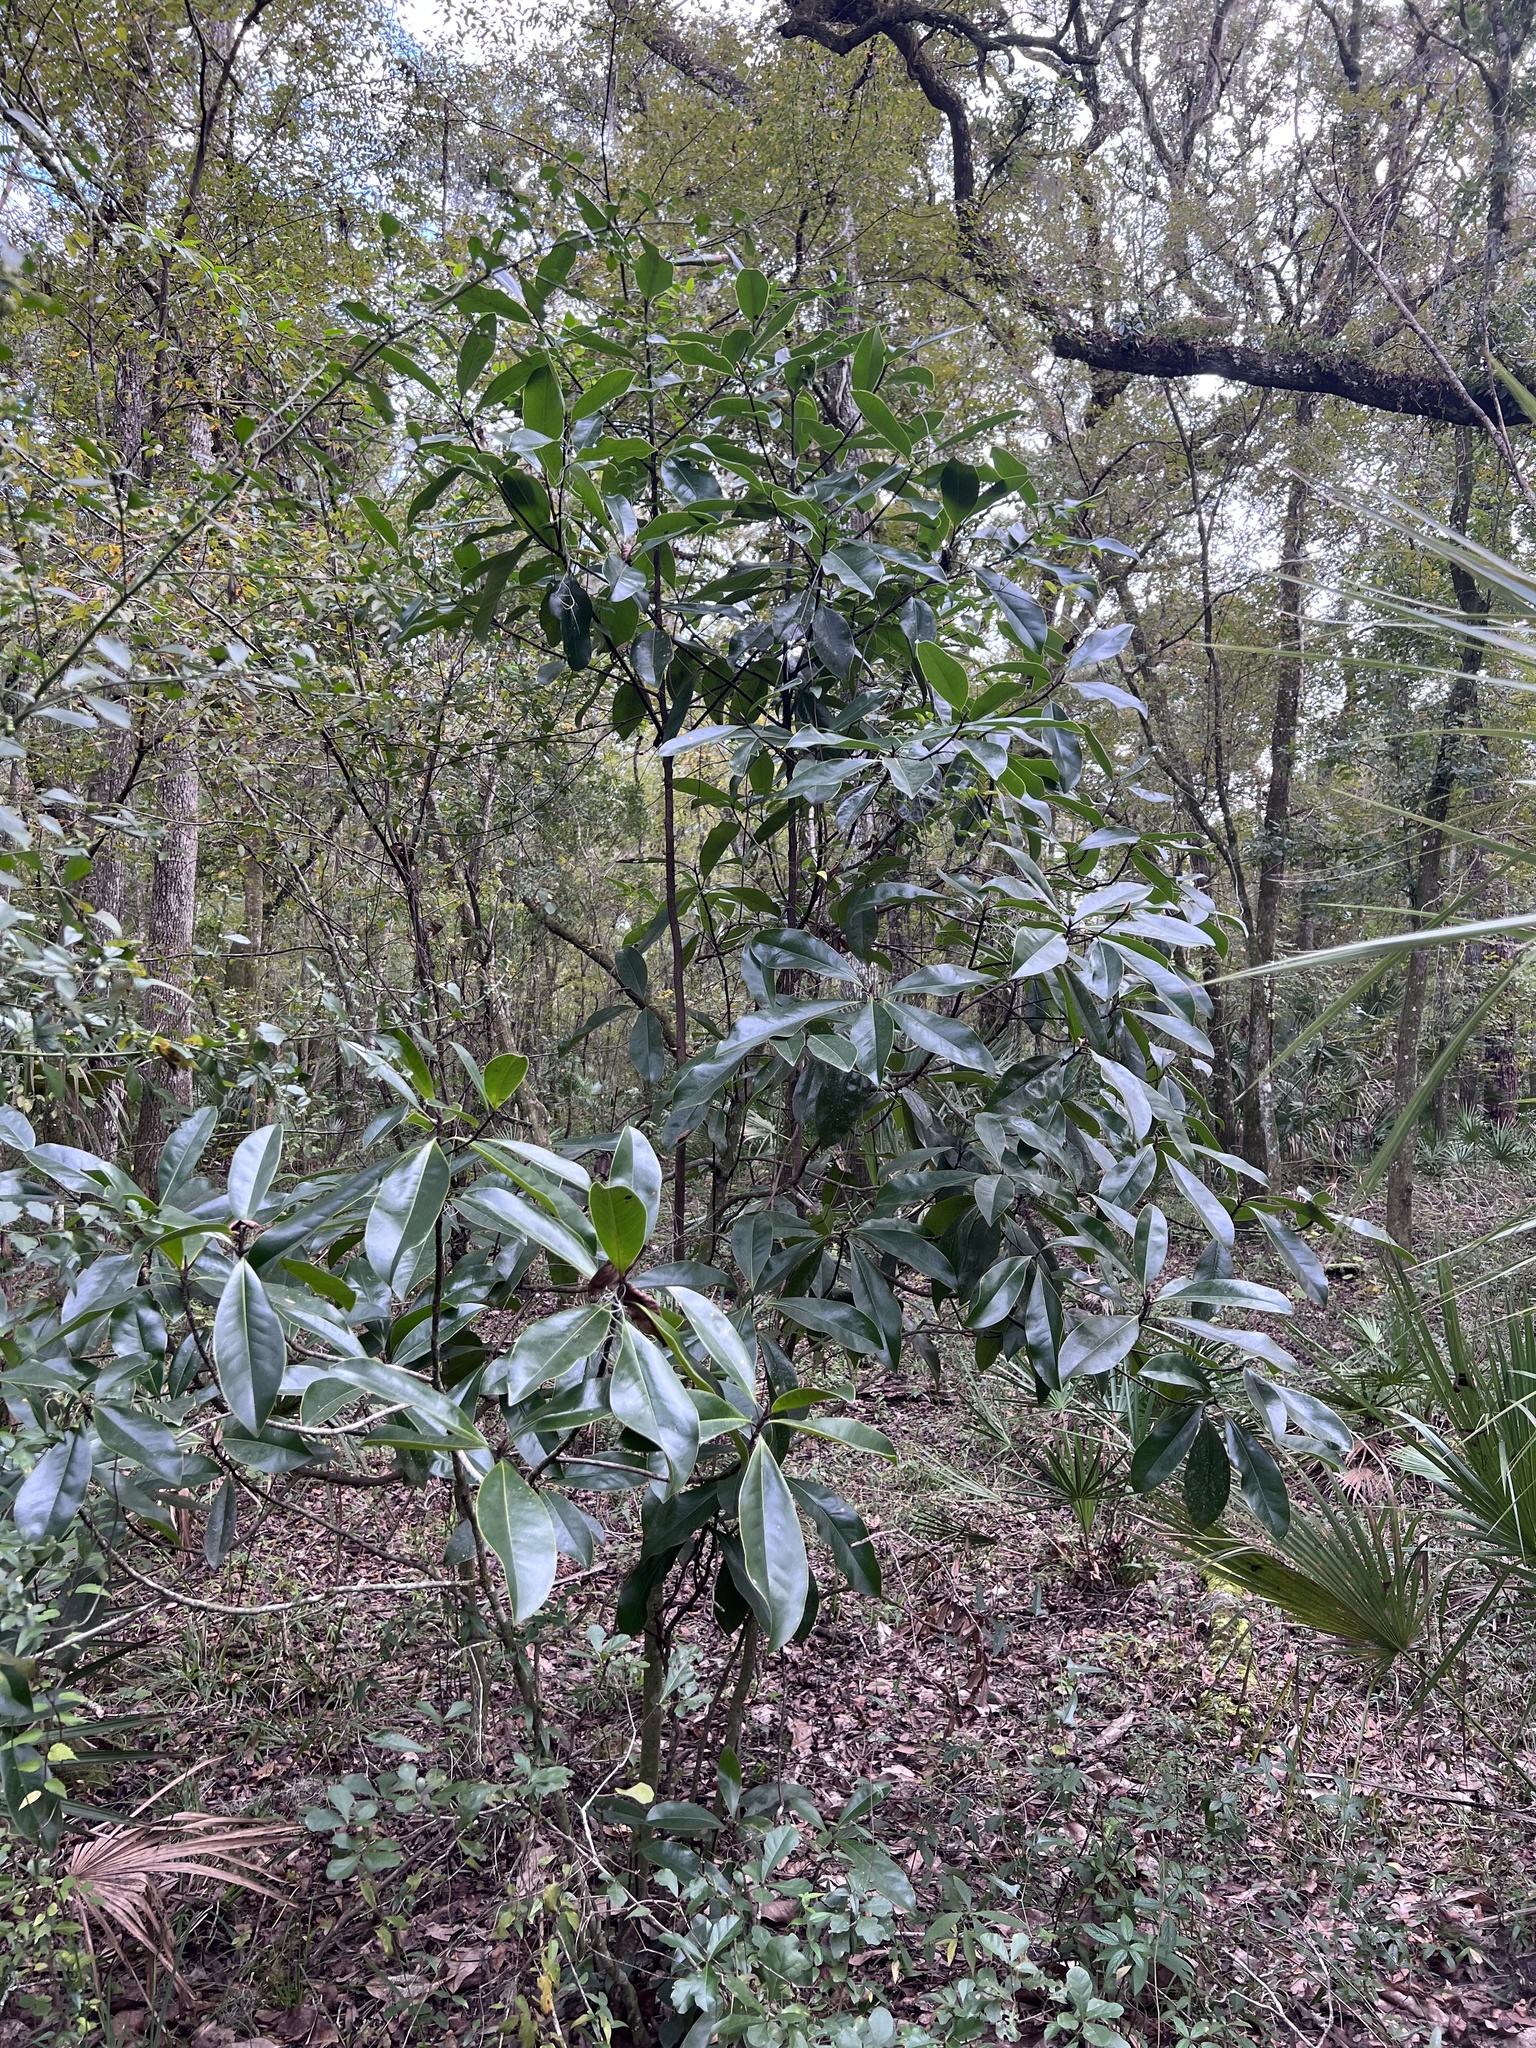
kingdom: Plantae
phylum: Tracheophyta
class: Magnoliopsida
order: Magnoliales
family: Magnoliaceae
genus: Magnolia
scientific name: Magnolia grandiflora
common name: Southern magnolia
